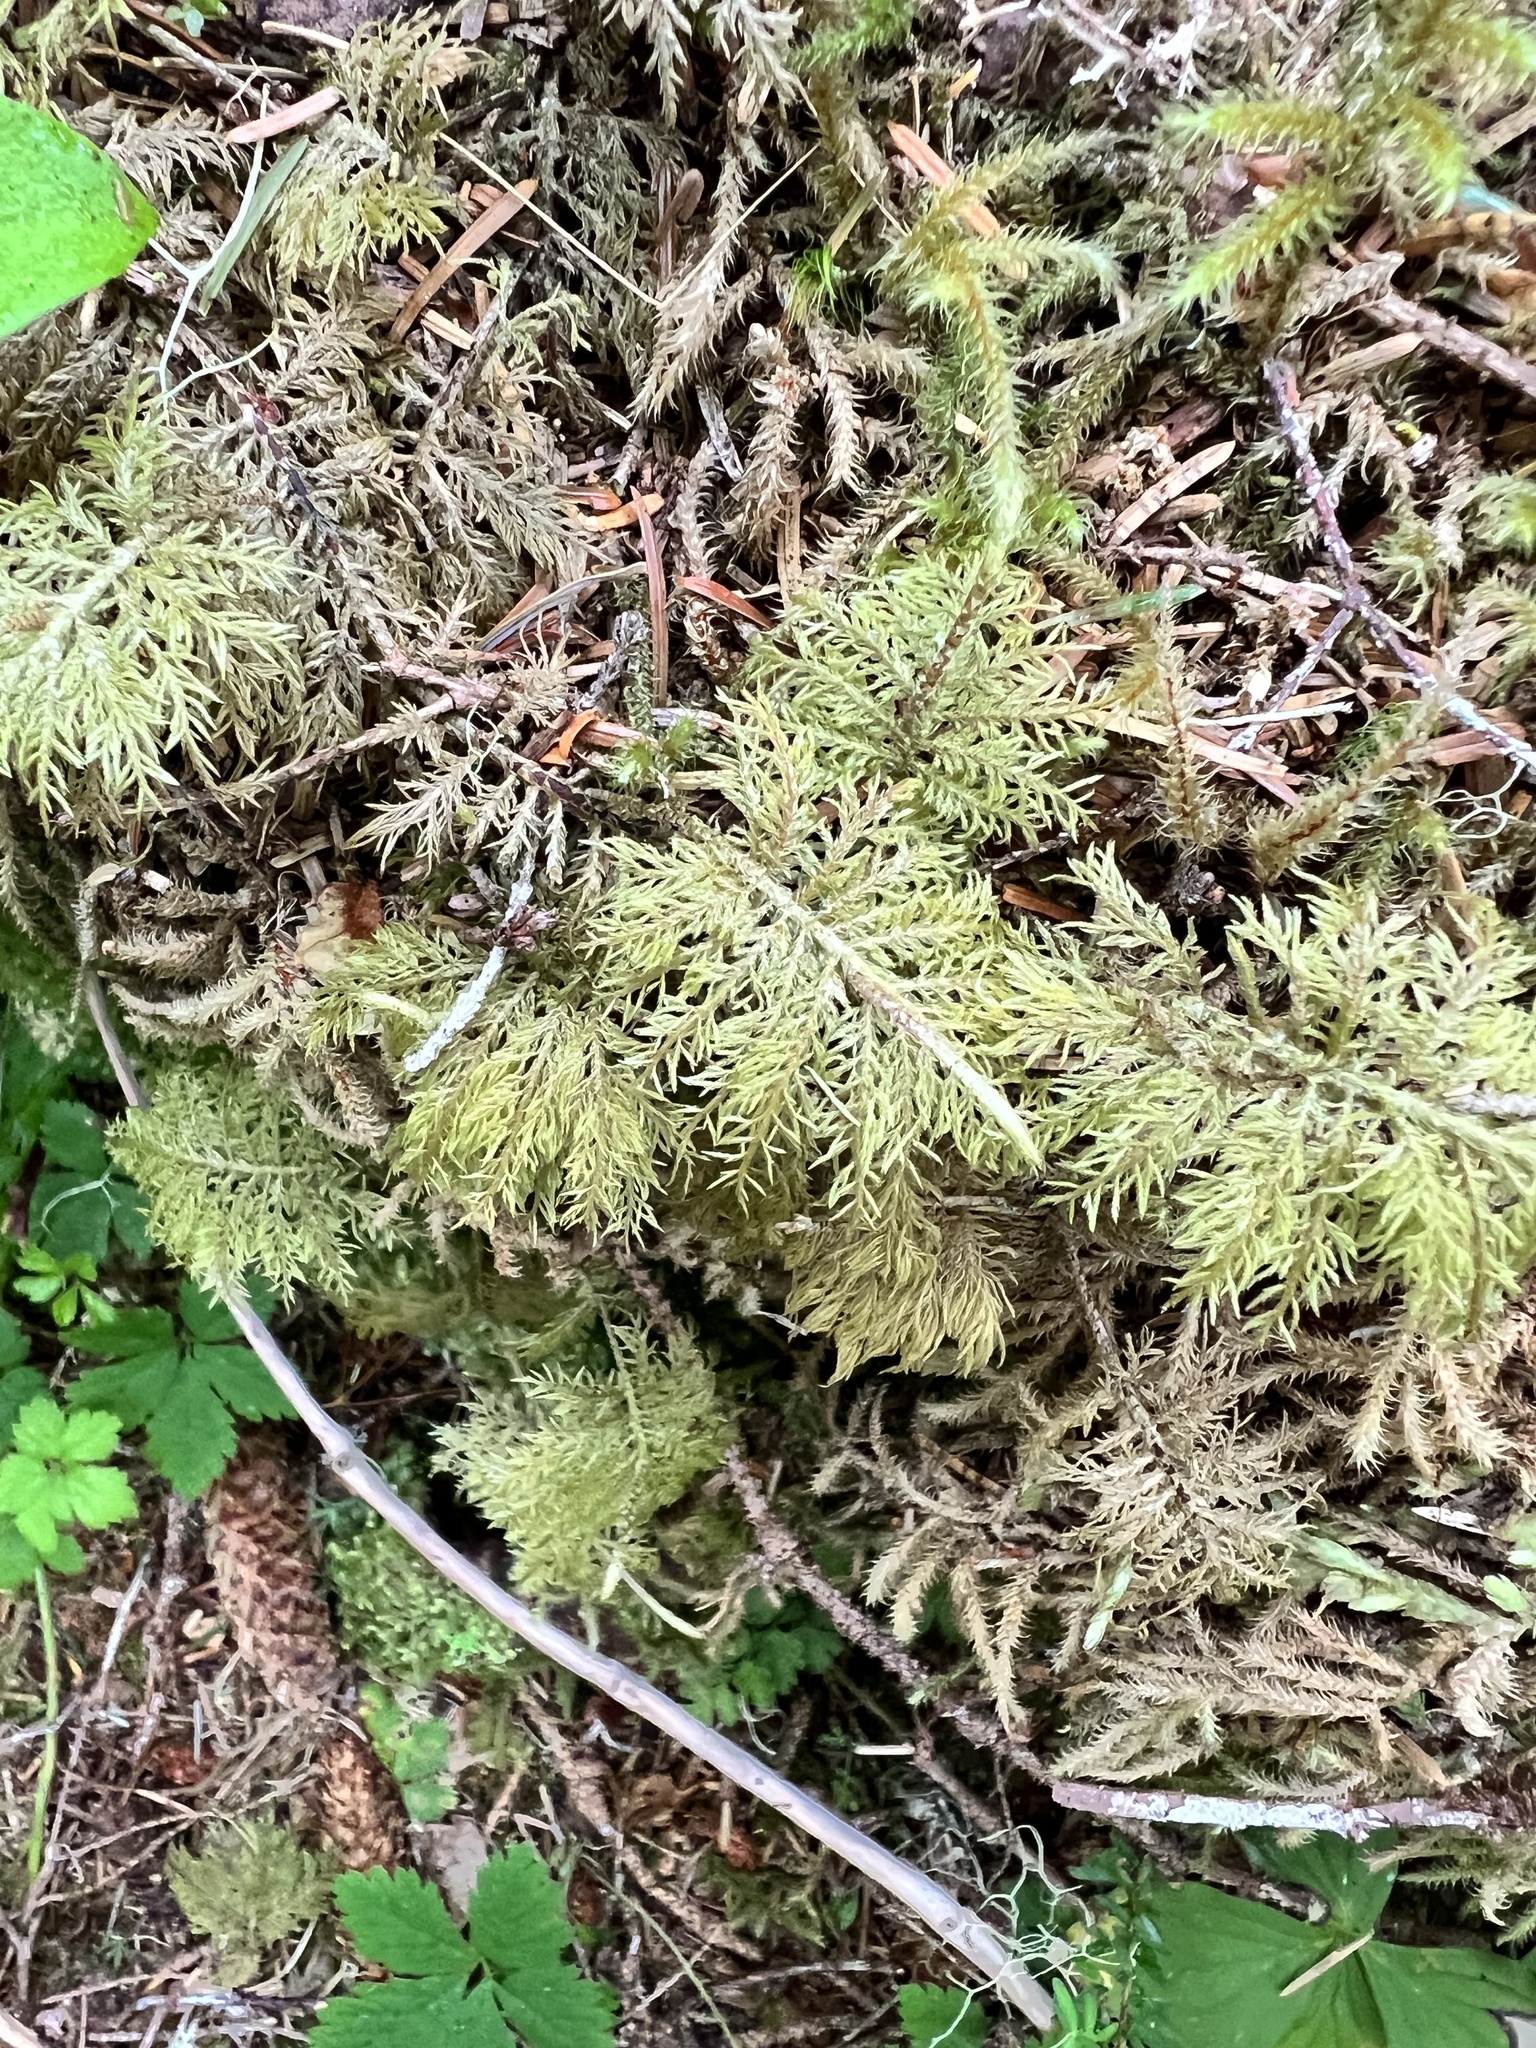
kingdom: Plantae
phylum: Bryophyta
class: Bryopsida
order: Hypnales
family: Hylocomiaceae
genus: Hylocomium
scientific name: Hylocomium splendens
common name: Stairstep moss
